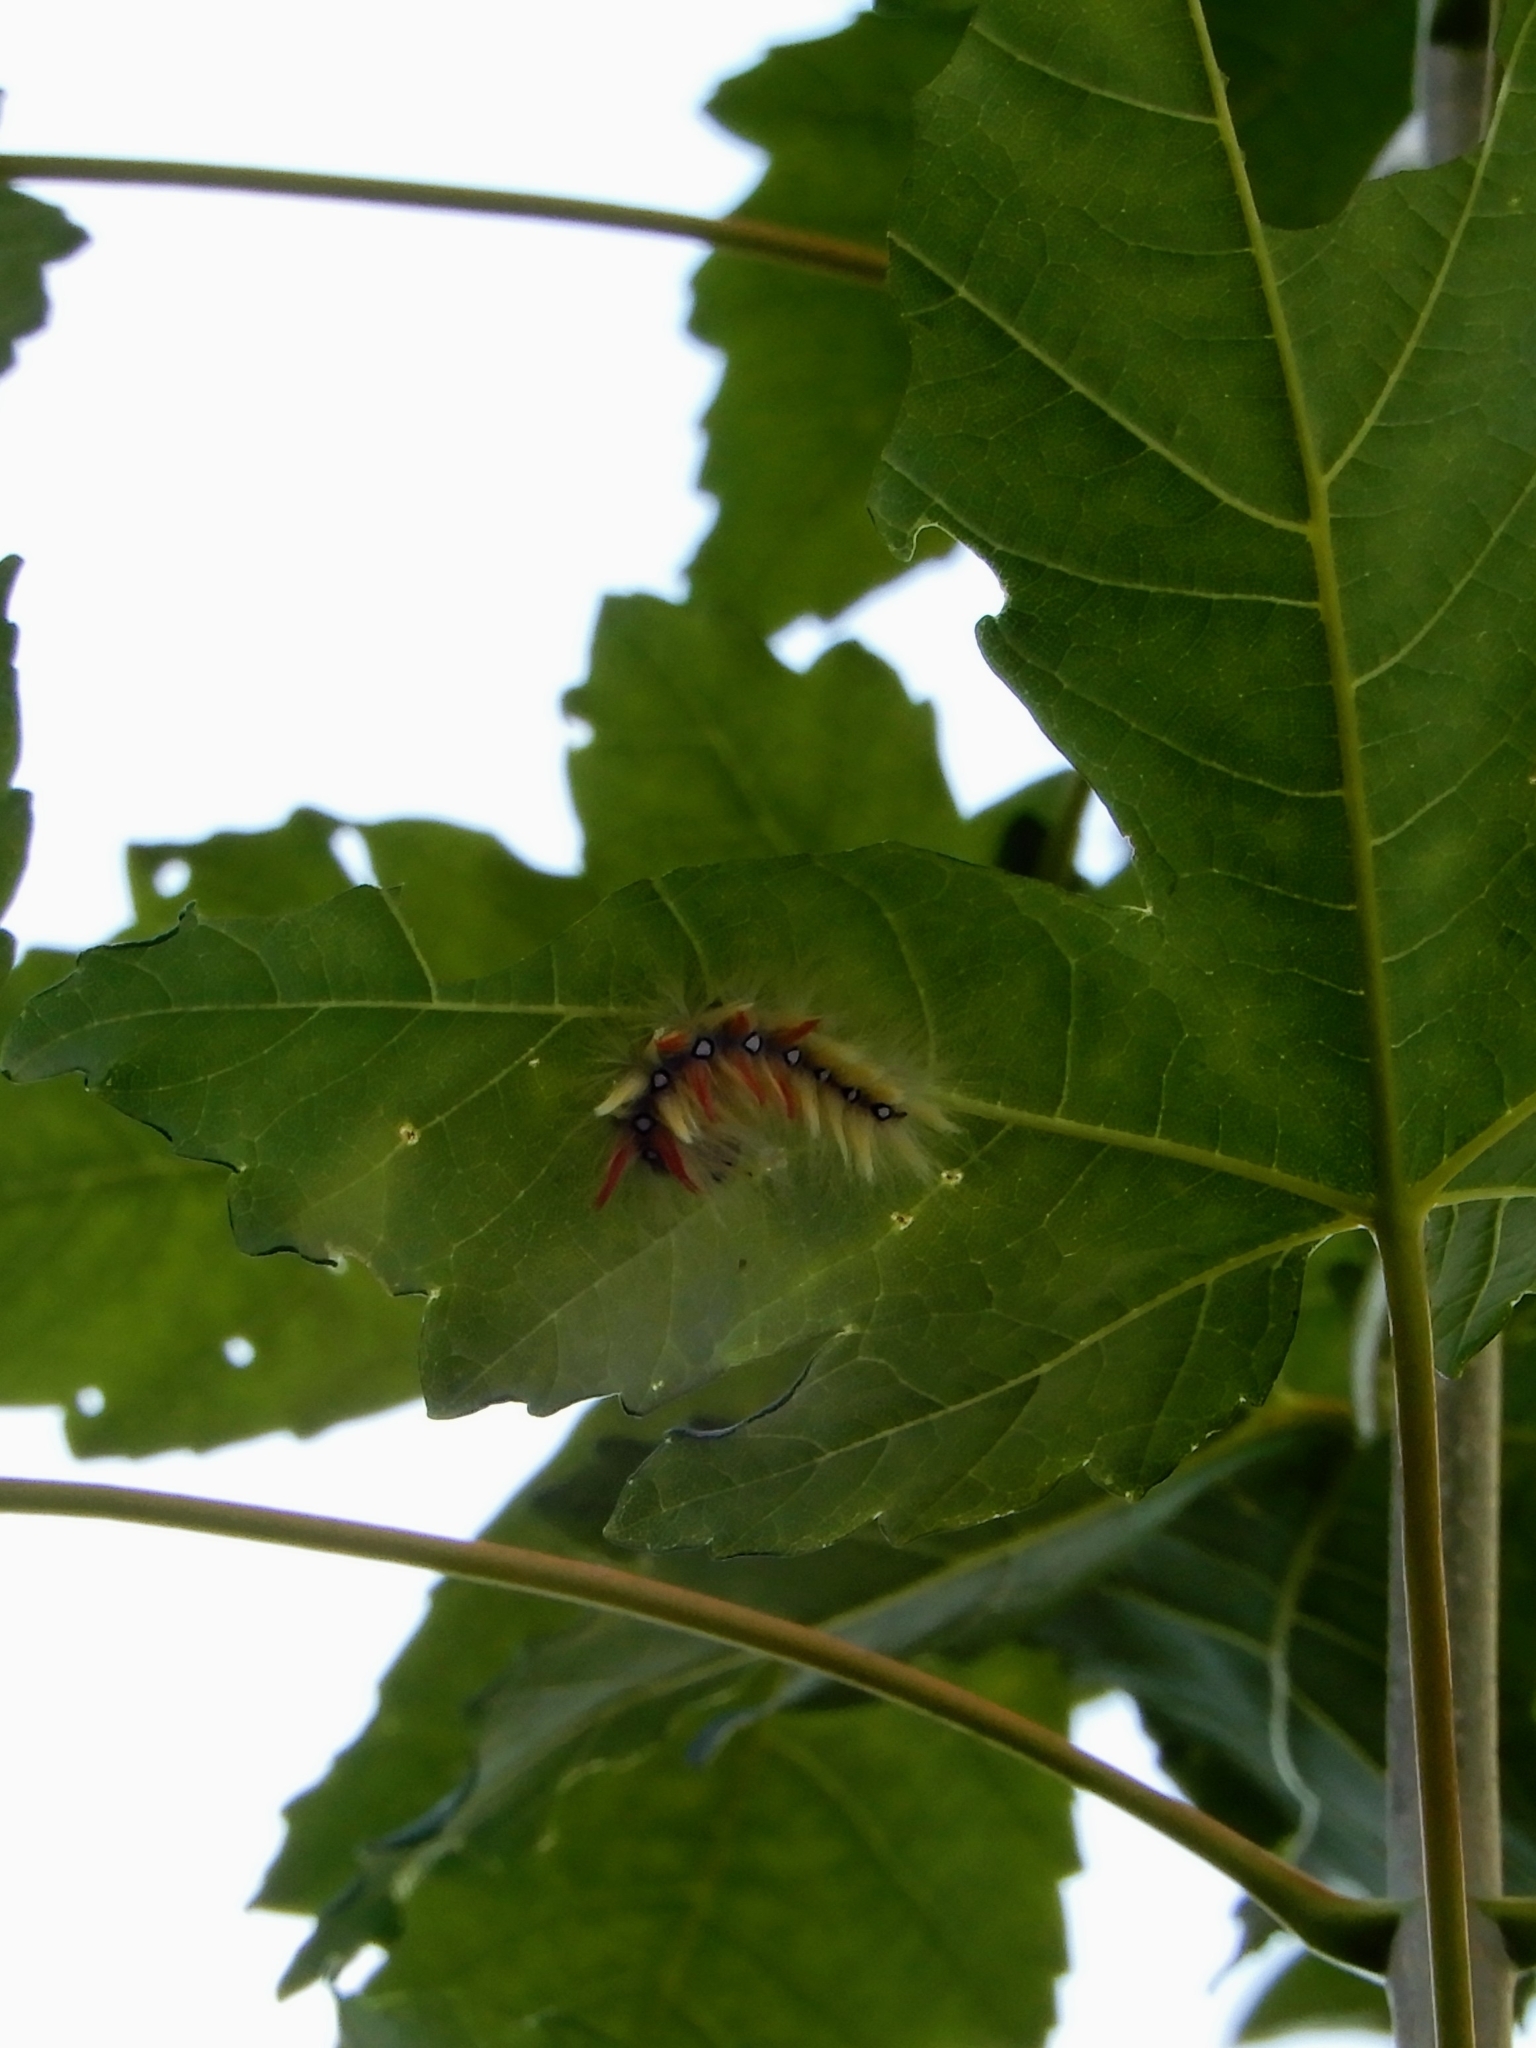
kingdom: Animalia
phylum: Arthropoda
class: Insecta
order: Lepidoptera
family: Noctuidae
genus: Acronicta
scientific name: Acronicta aceris
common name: Sycamore
